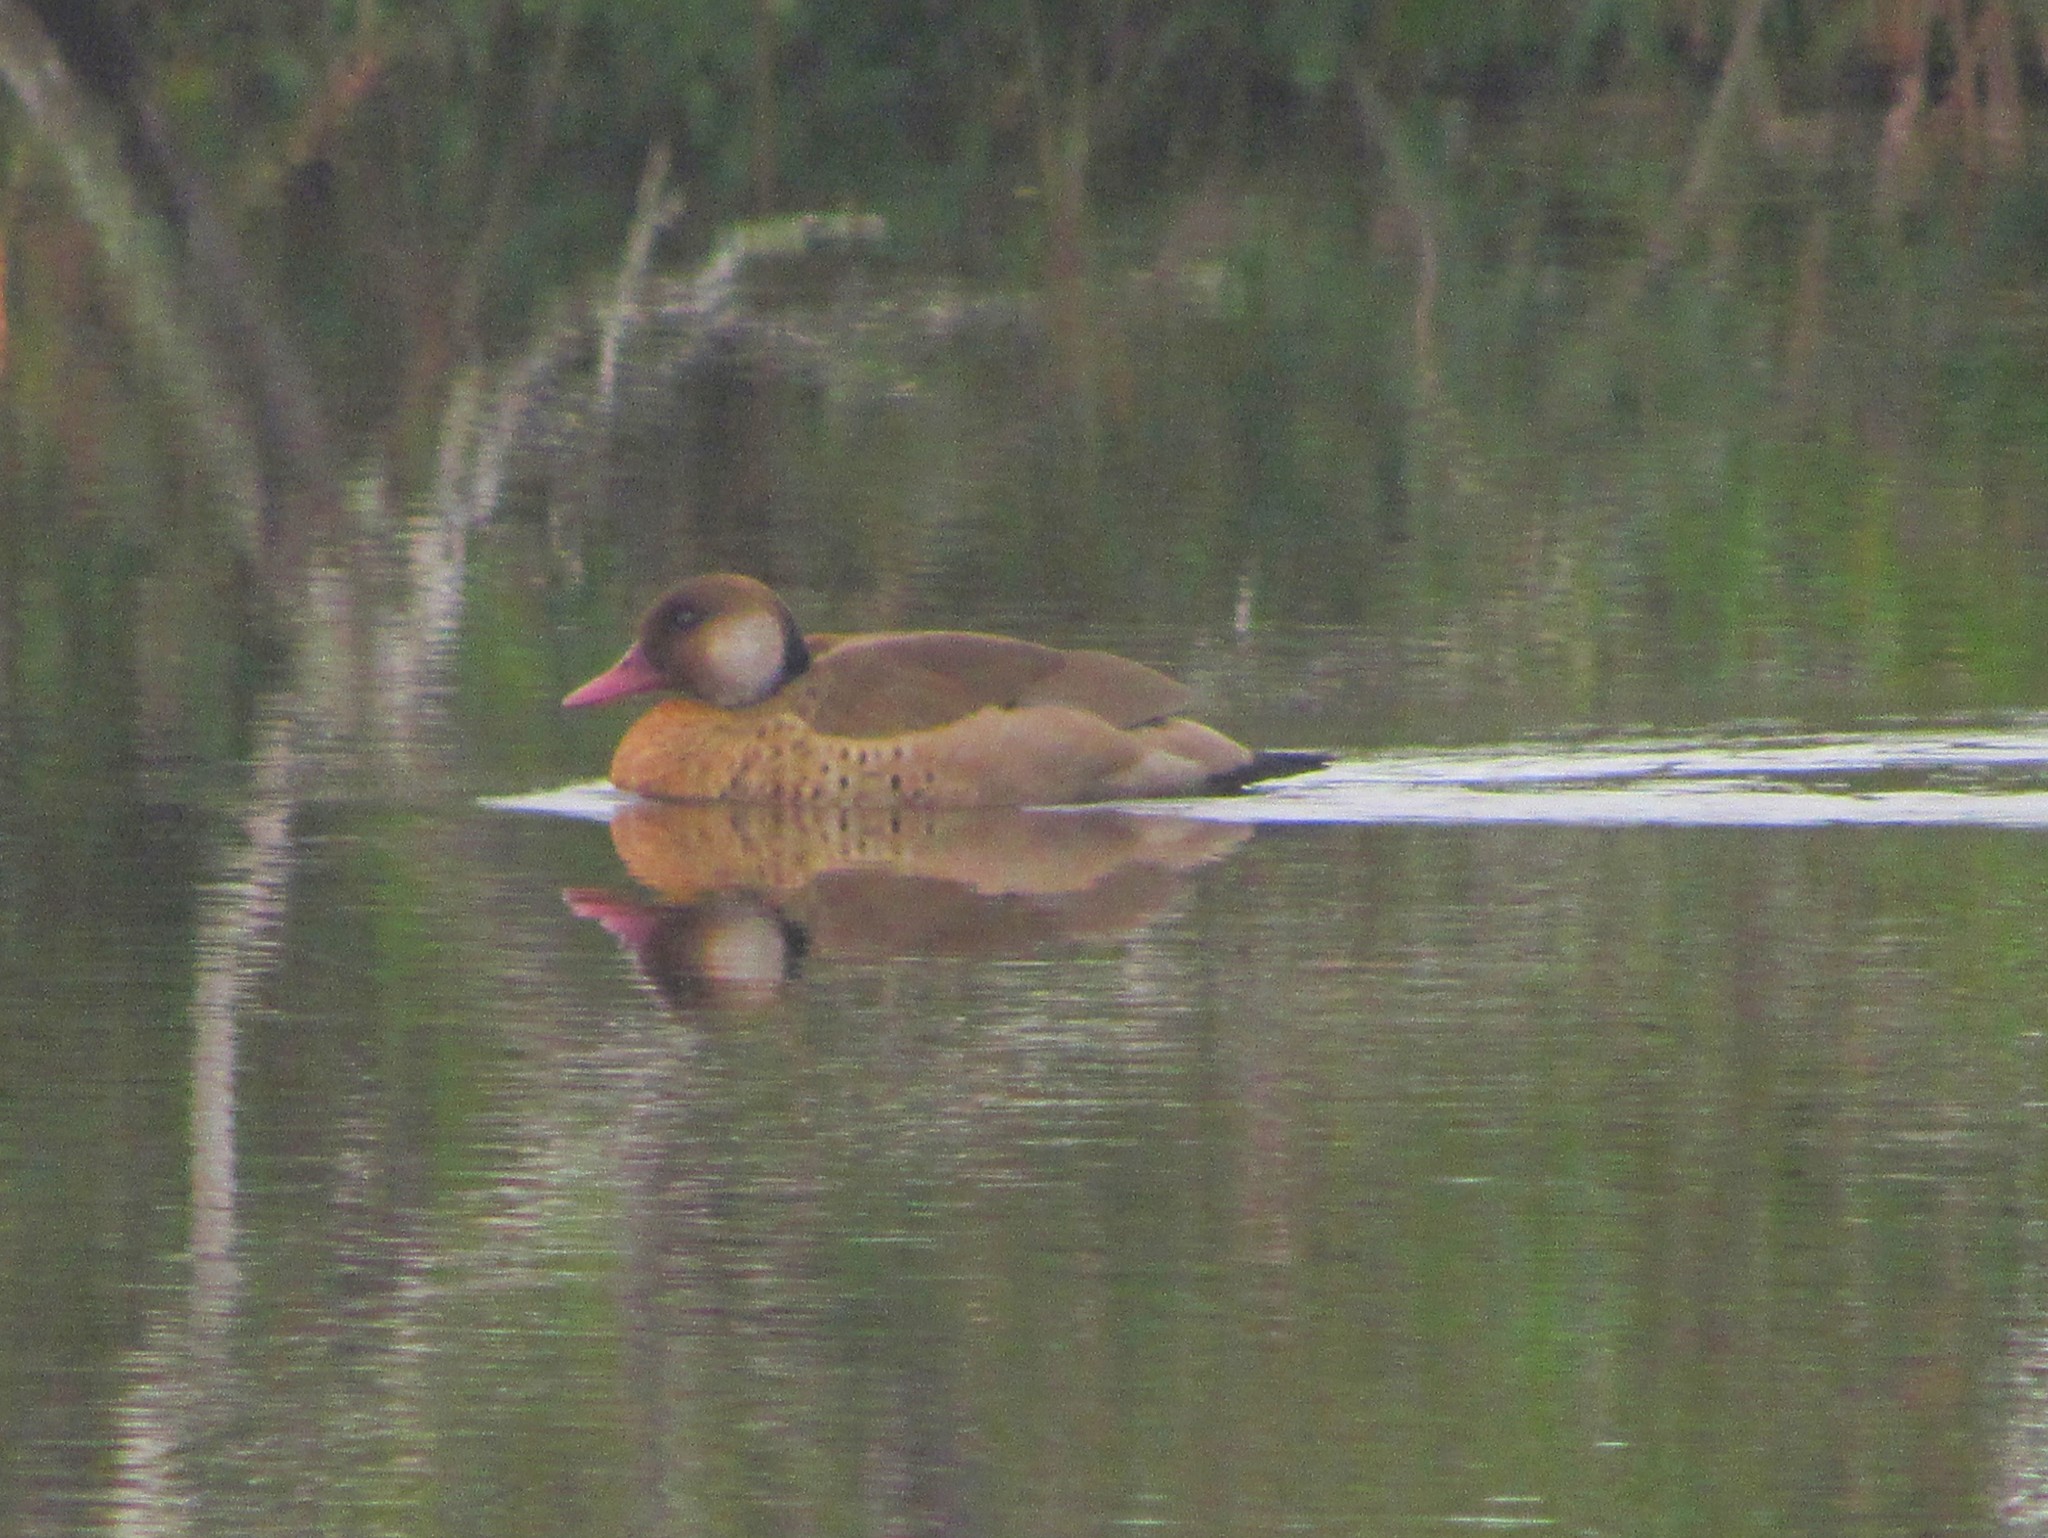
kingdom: Animalia
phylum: Chordata
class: Aves
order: Anseriformes
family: Anatidae
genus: Amazonetta
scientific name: Amazonetta brasiliensis
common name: Brazilian teal
